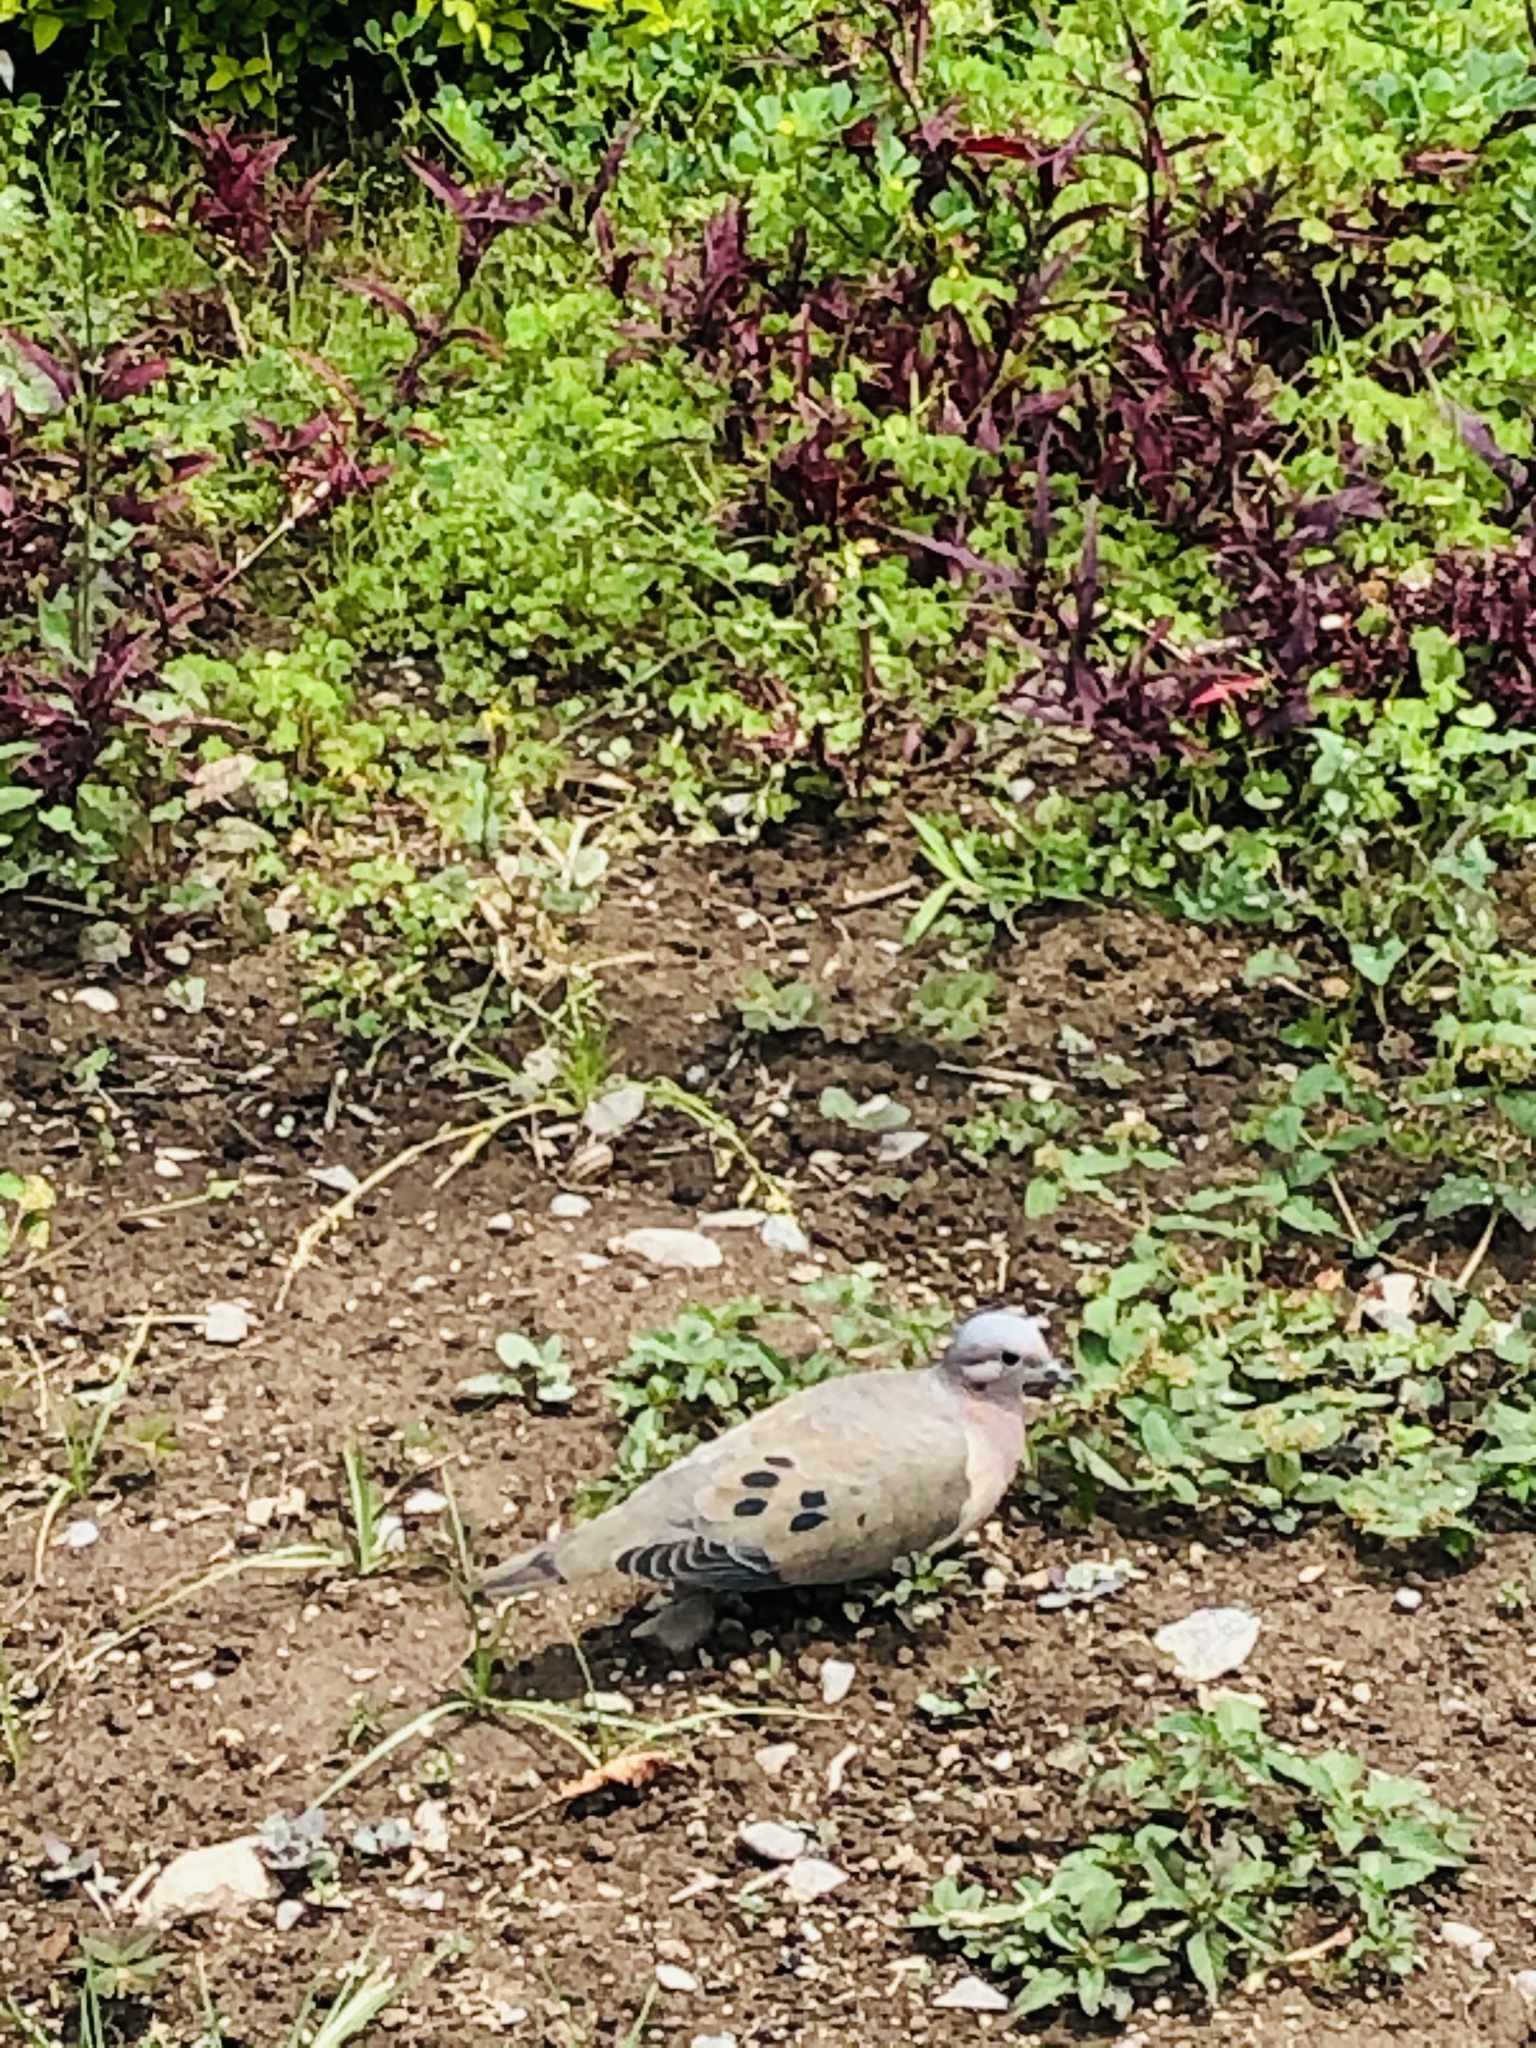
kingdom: Animalia
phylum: Chordata
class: Aves
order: Columbiformes
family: Columbidae
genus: Zenaida
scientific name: Zenaida auriculata
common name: Eared dove
